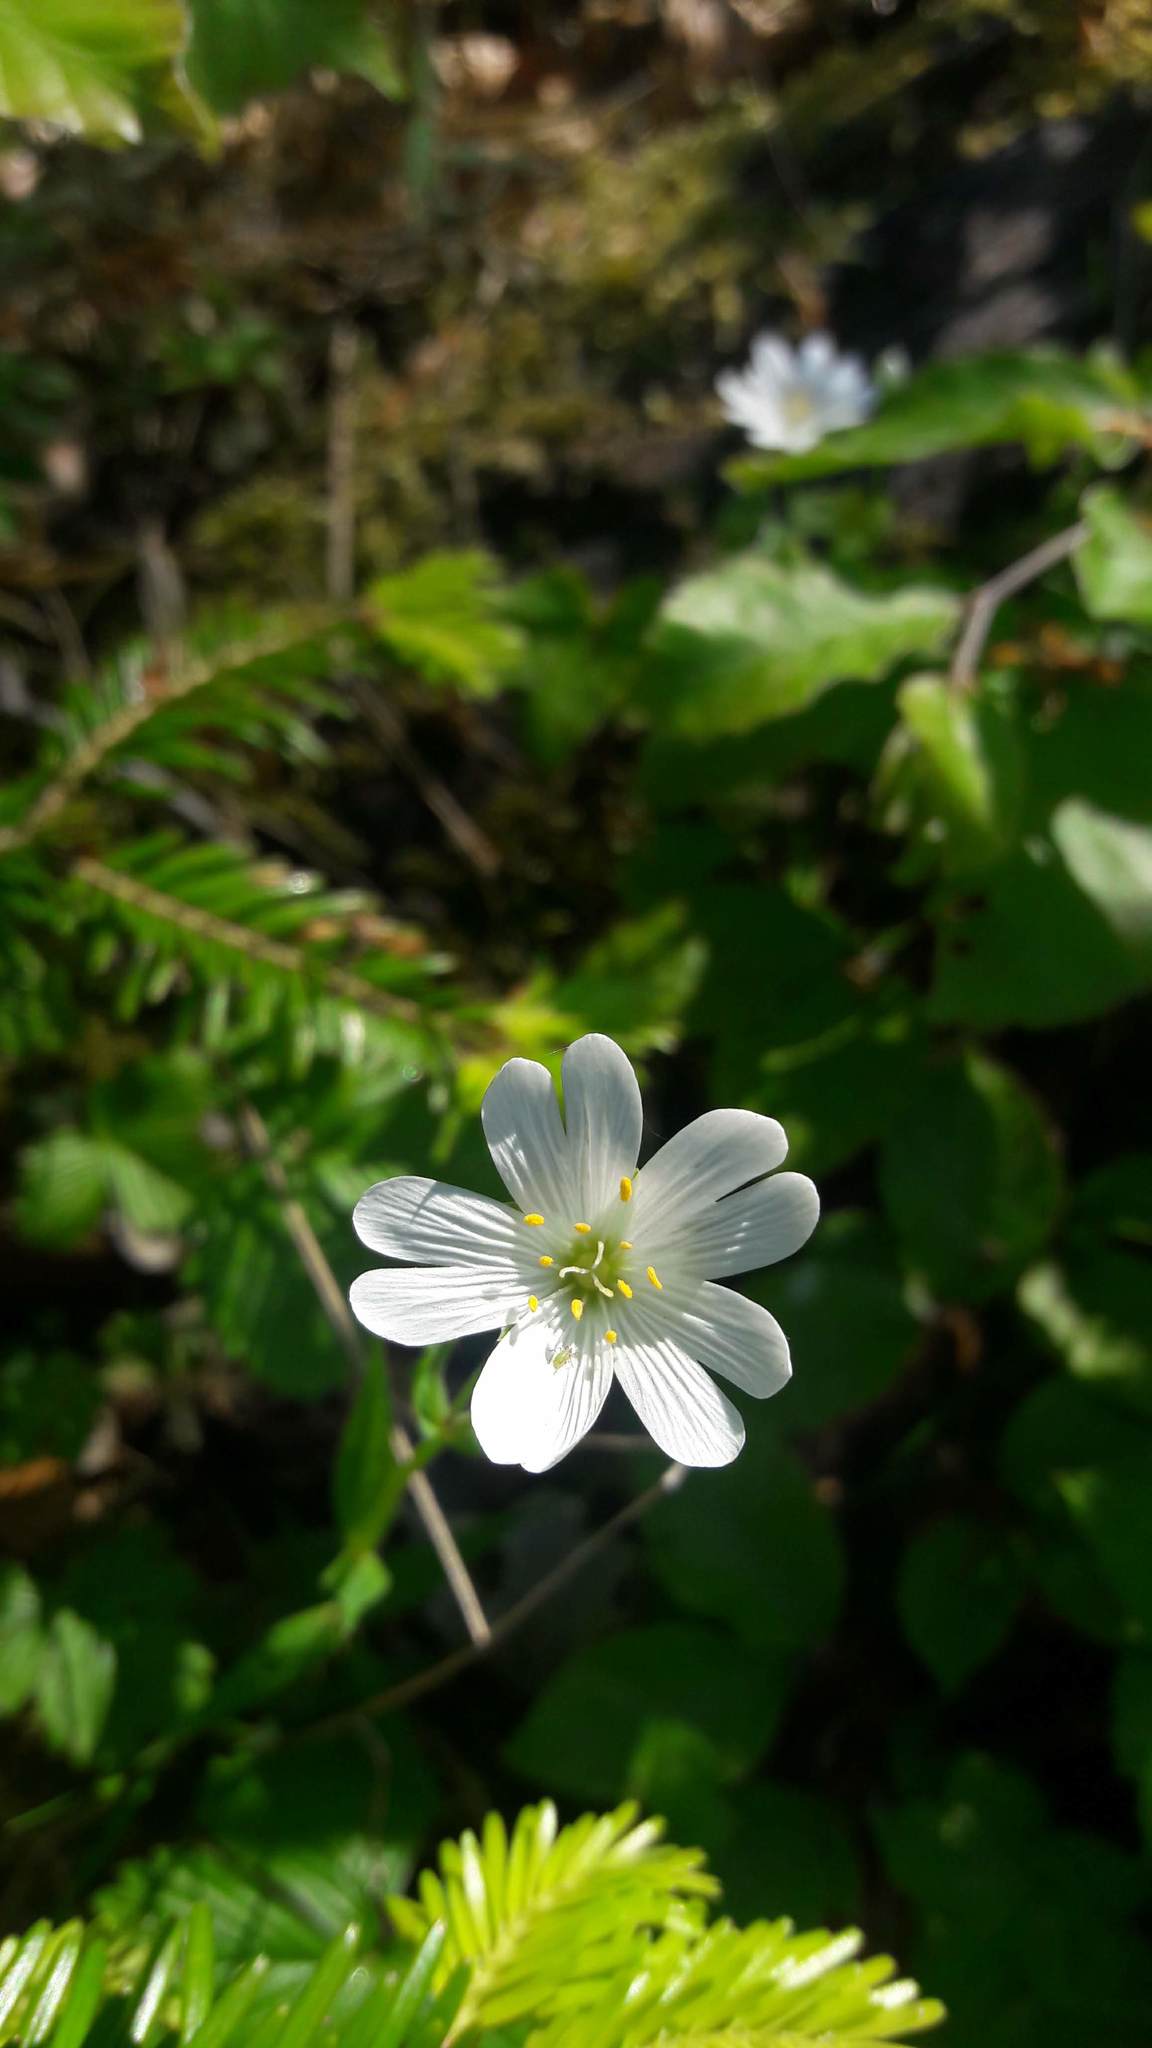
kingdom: Plantae
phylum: Tracheophyta
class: Magnoliopsida
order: Caryophyllales
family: Caryophyllaceae
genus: Rabelera
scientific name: Rabelera holostea
